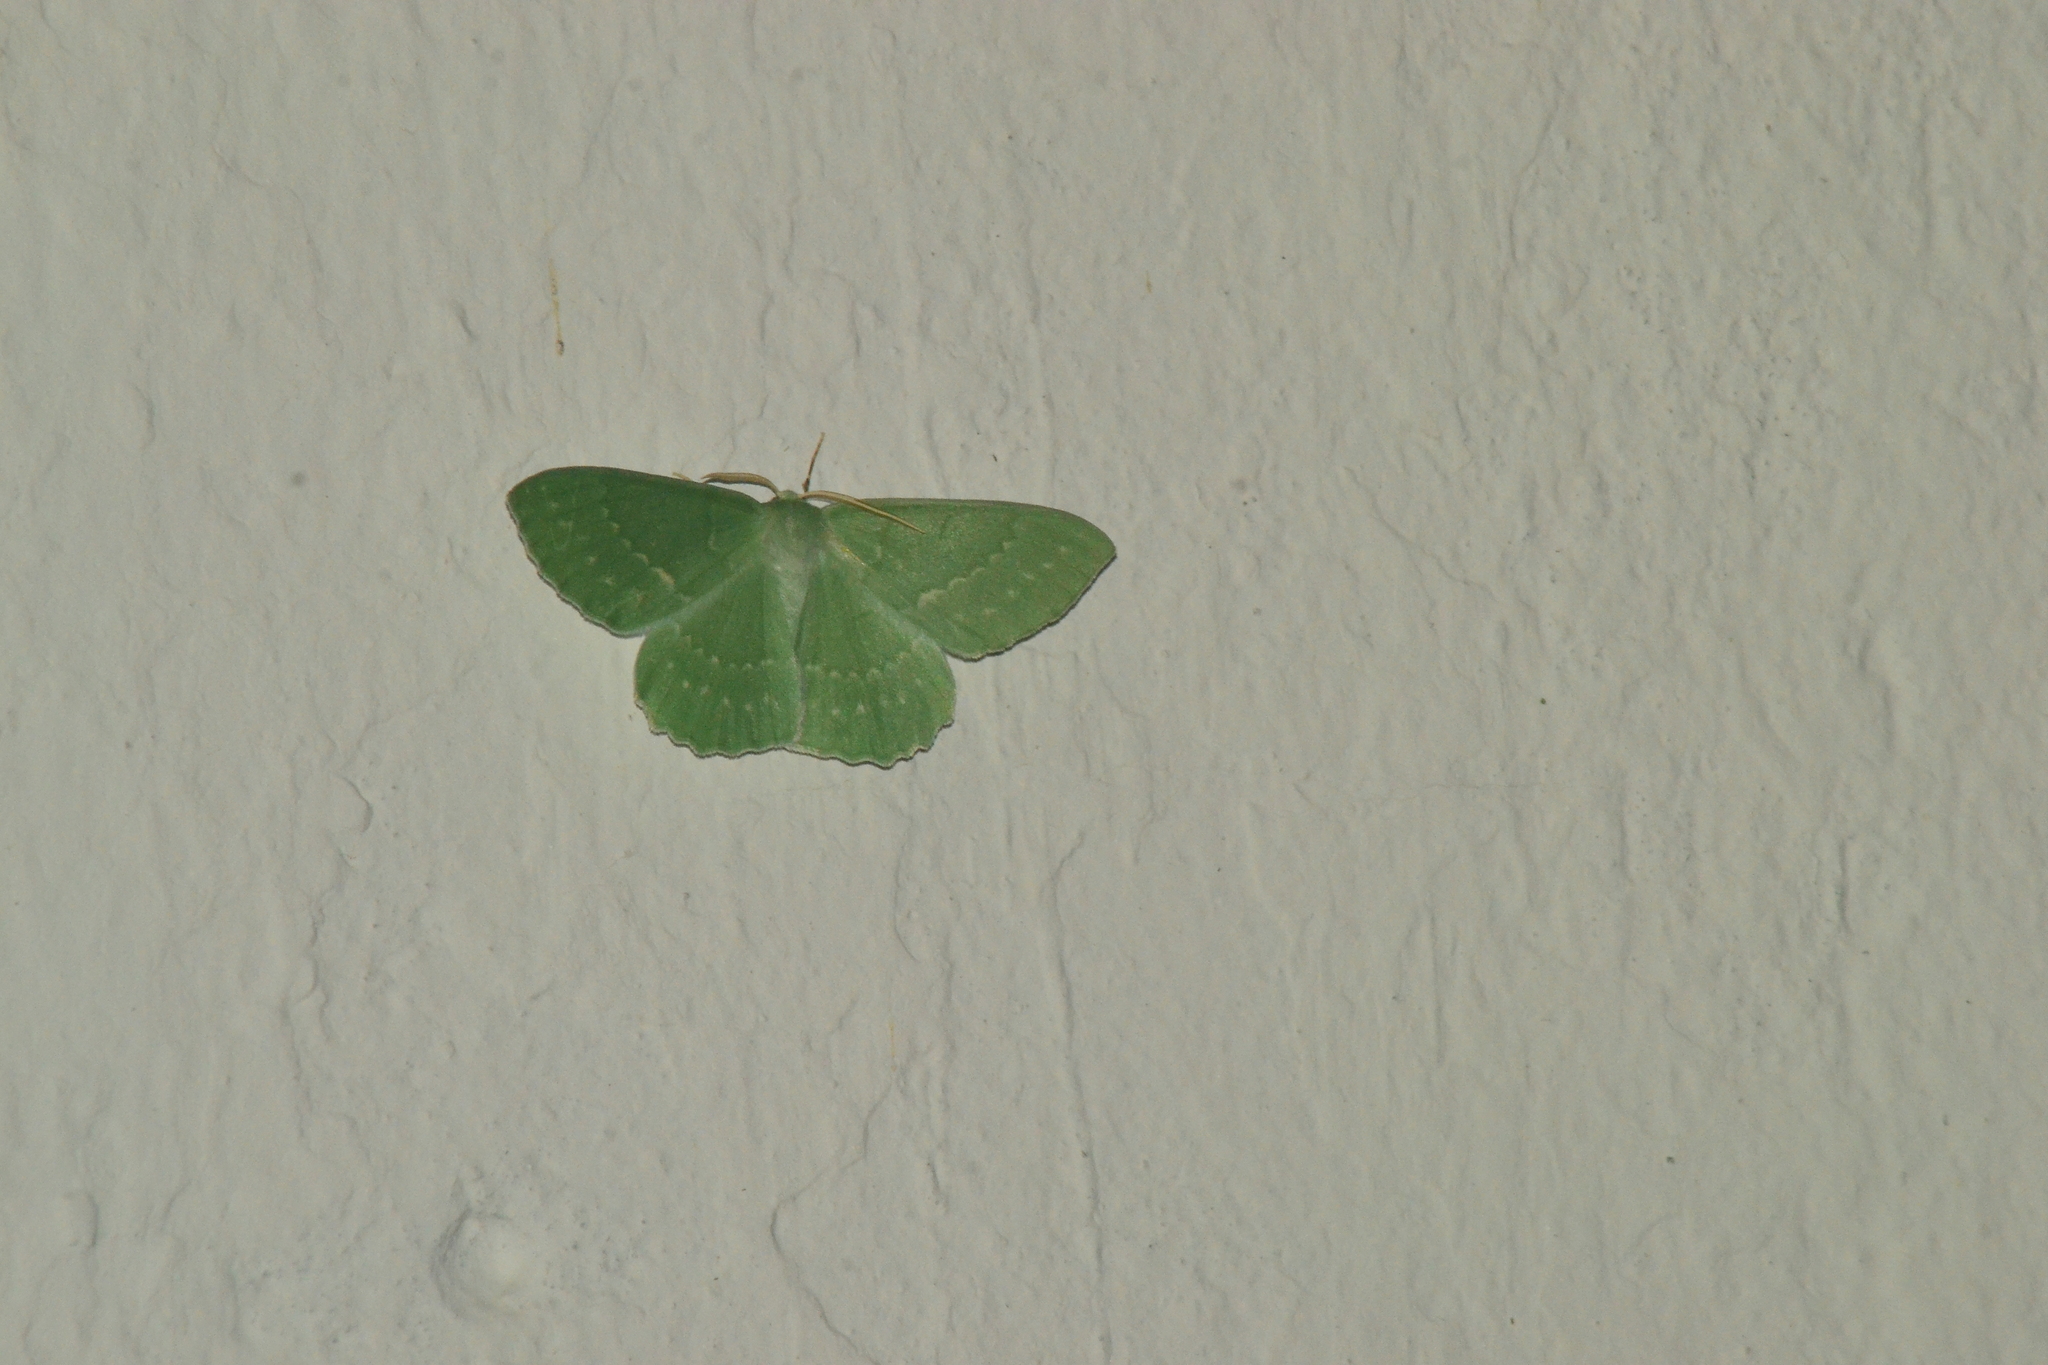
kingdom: Animalia
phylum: Arthropoda
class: Insecta
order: Lepidoptera
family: Geometridae
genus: Geometra
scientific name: Geometra papilionaria
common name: Large emerald
